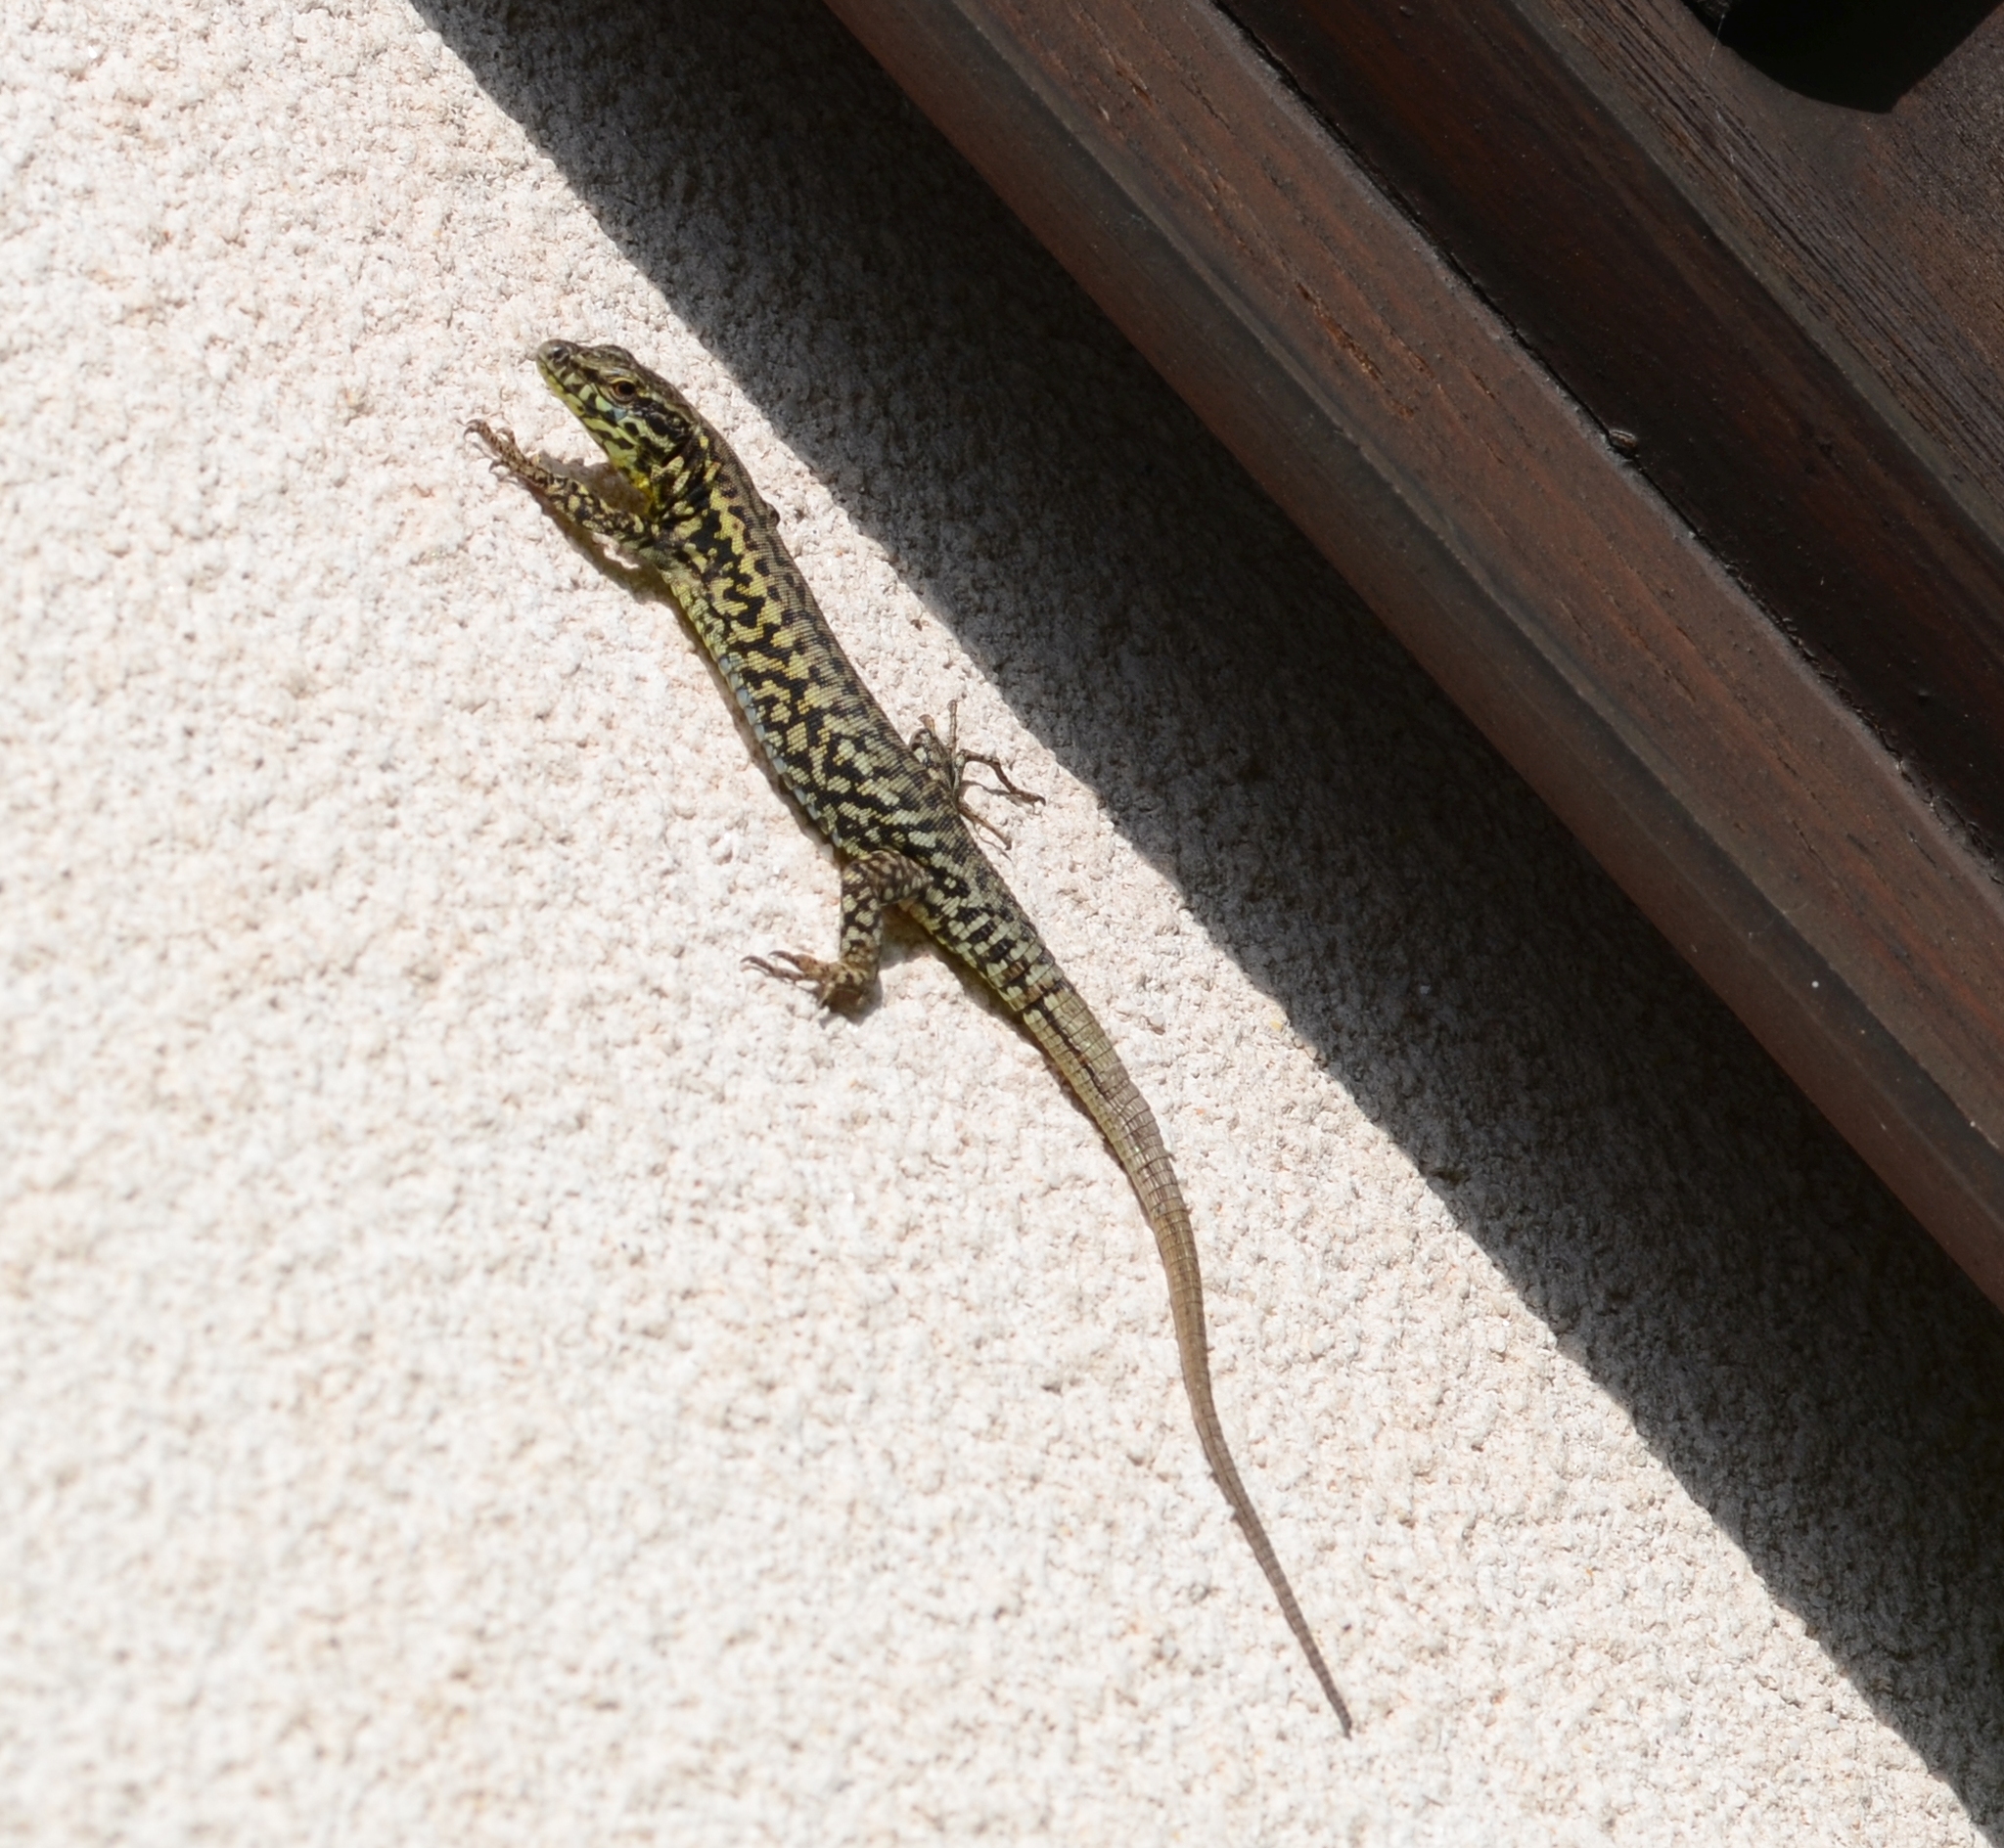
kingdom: Animalia
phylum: Chordata
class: Squamata
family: Lacertidae
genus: Podarcis
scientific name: Podarcis muralis
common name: Common wall lizard
